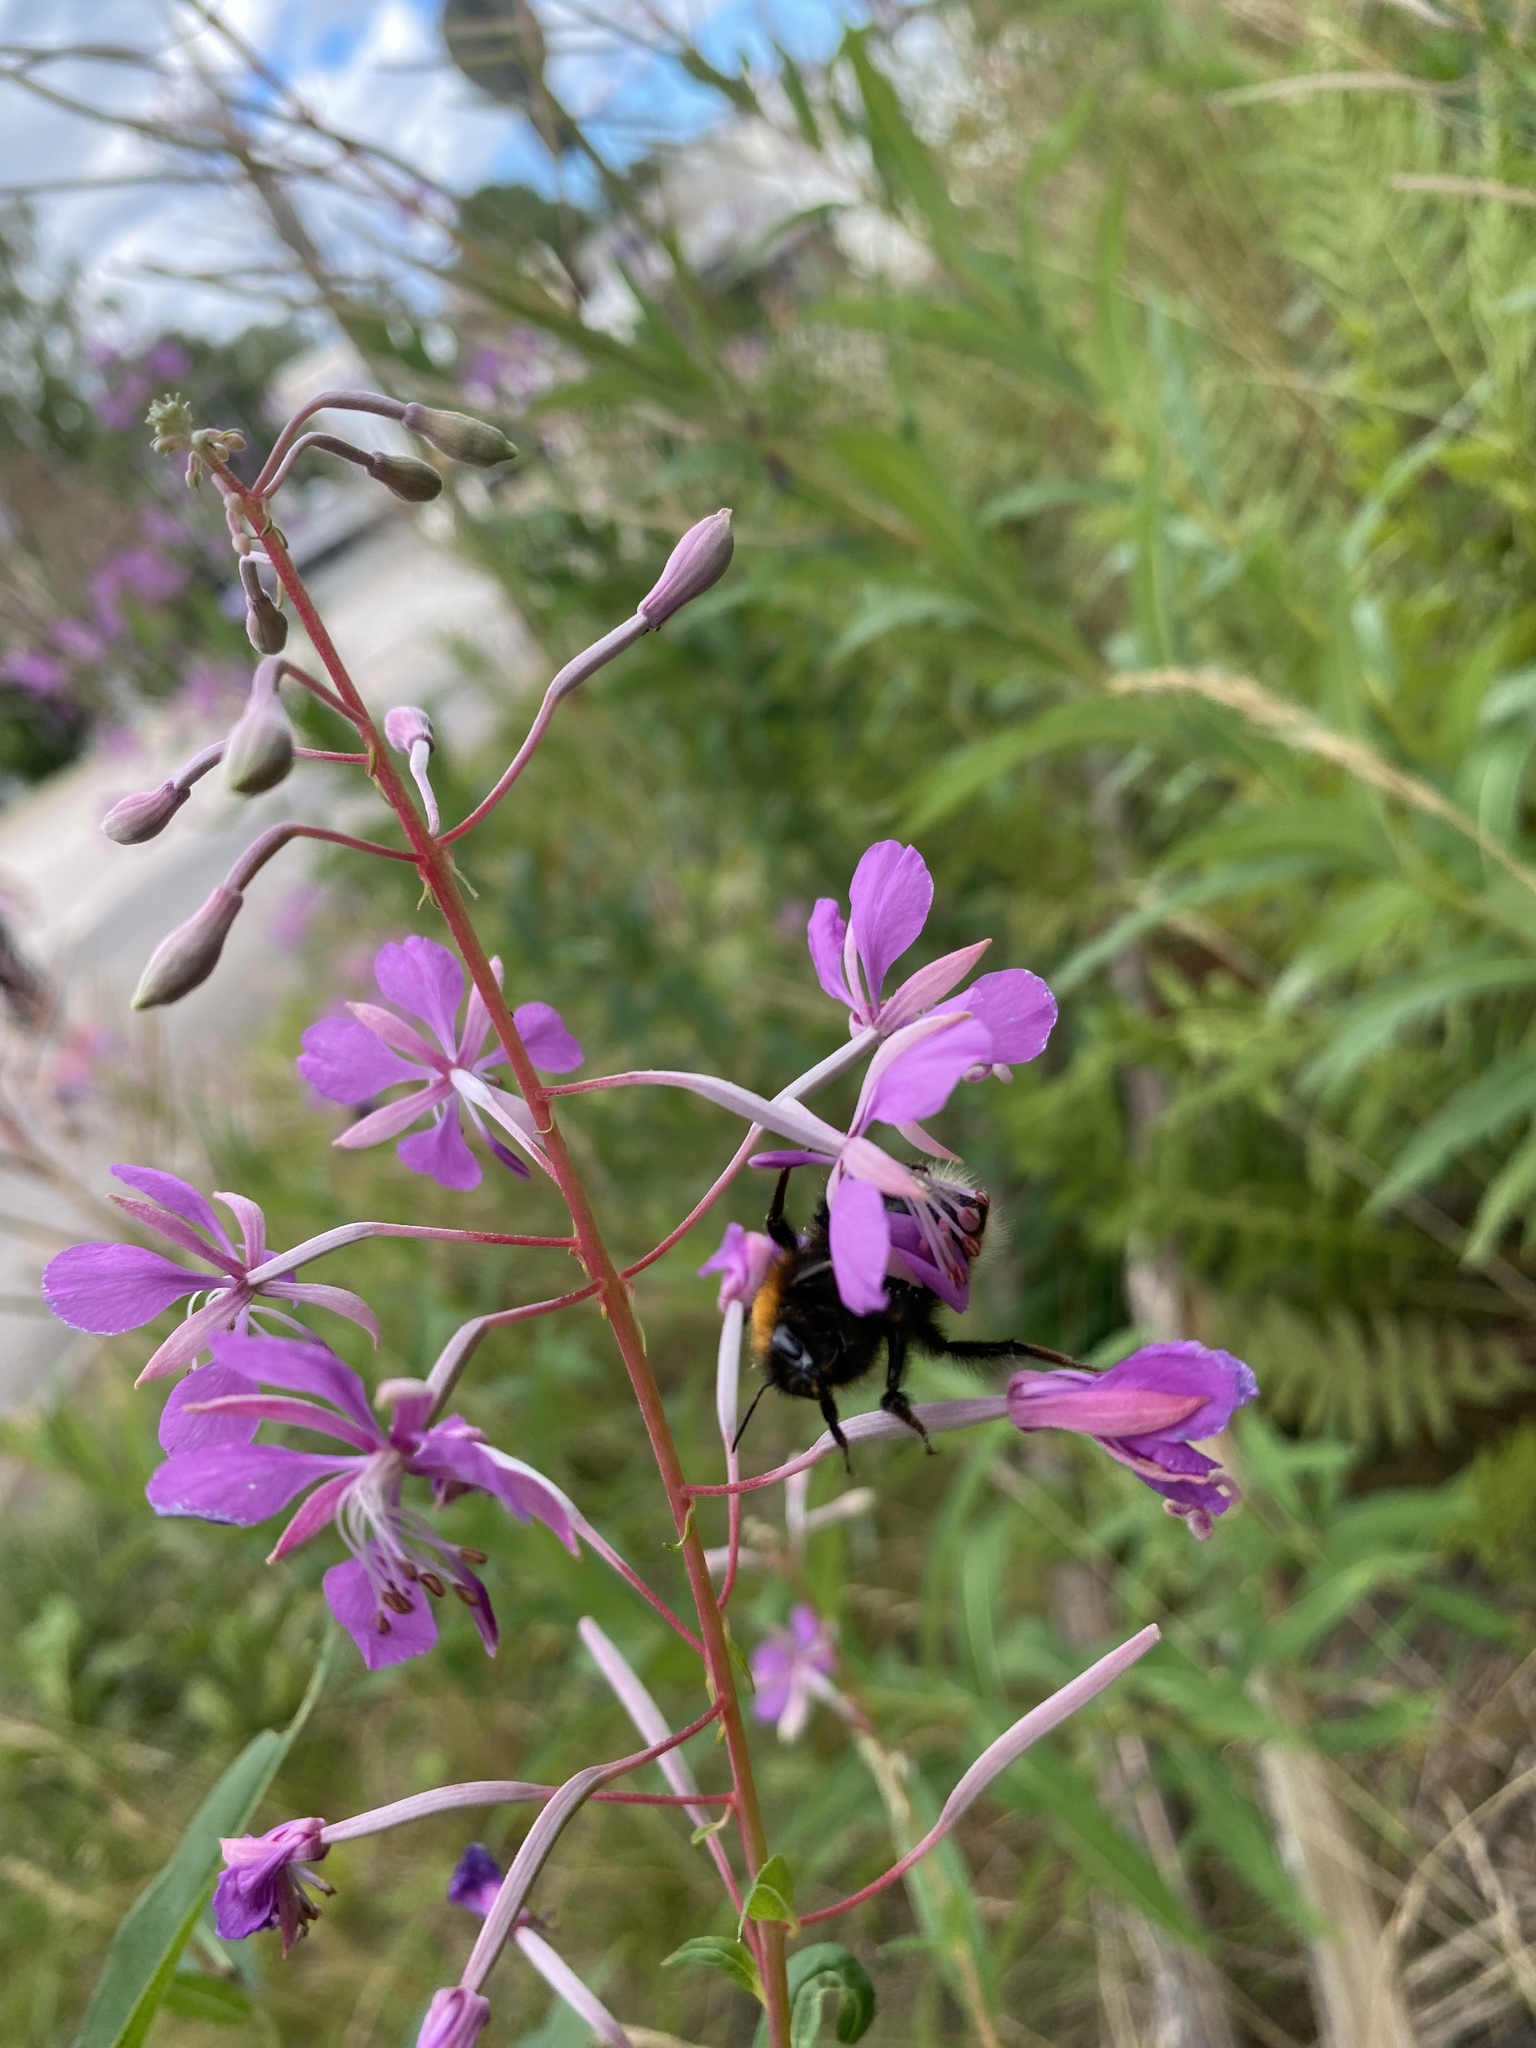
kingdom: Animalia
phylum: Arthropoda
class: Insecta
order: Hymenoptera
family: Apidae
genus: Bombus
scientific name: Bombus hypnorum
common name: New garden bumblebee
